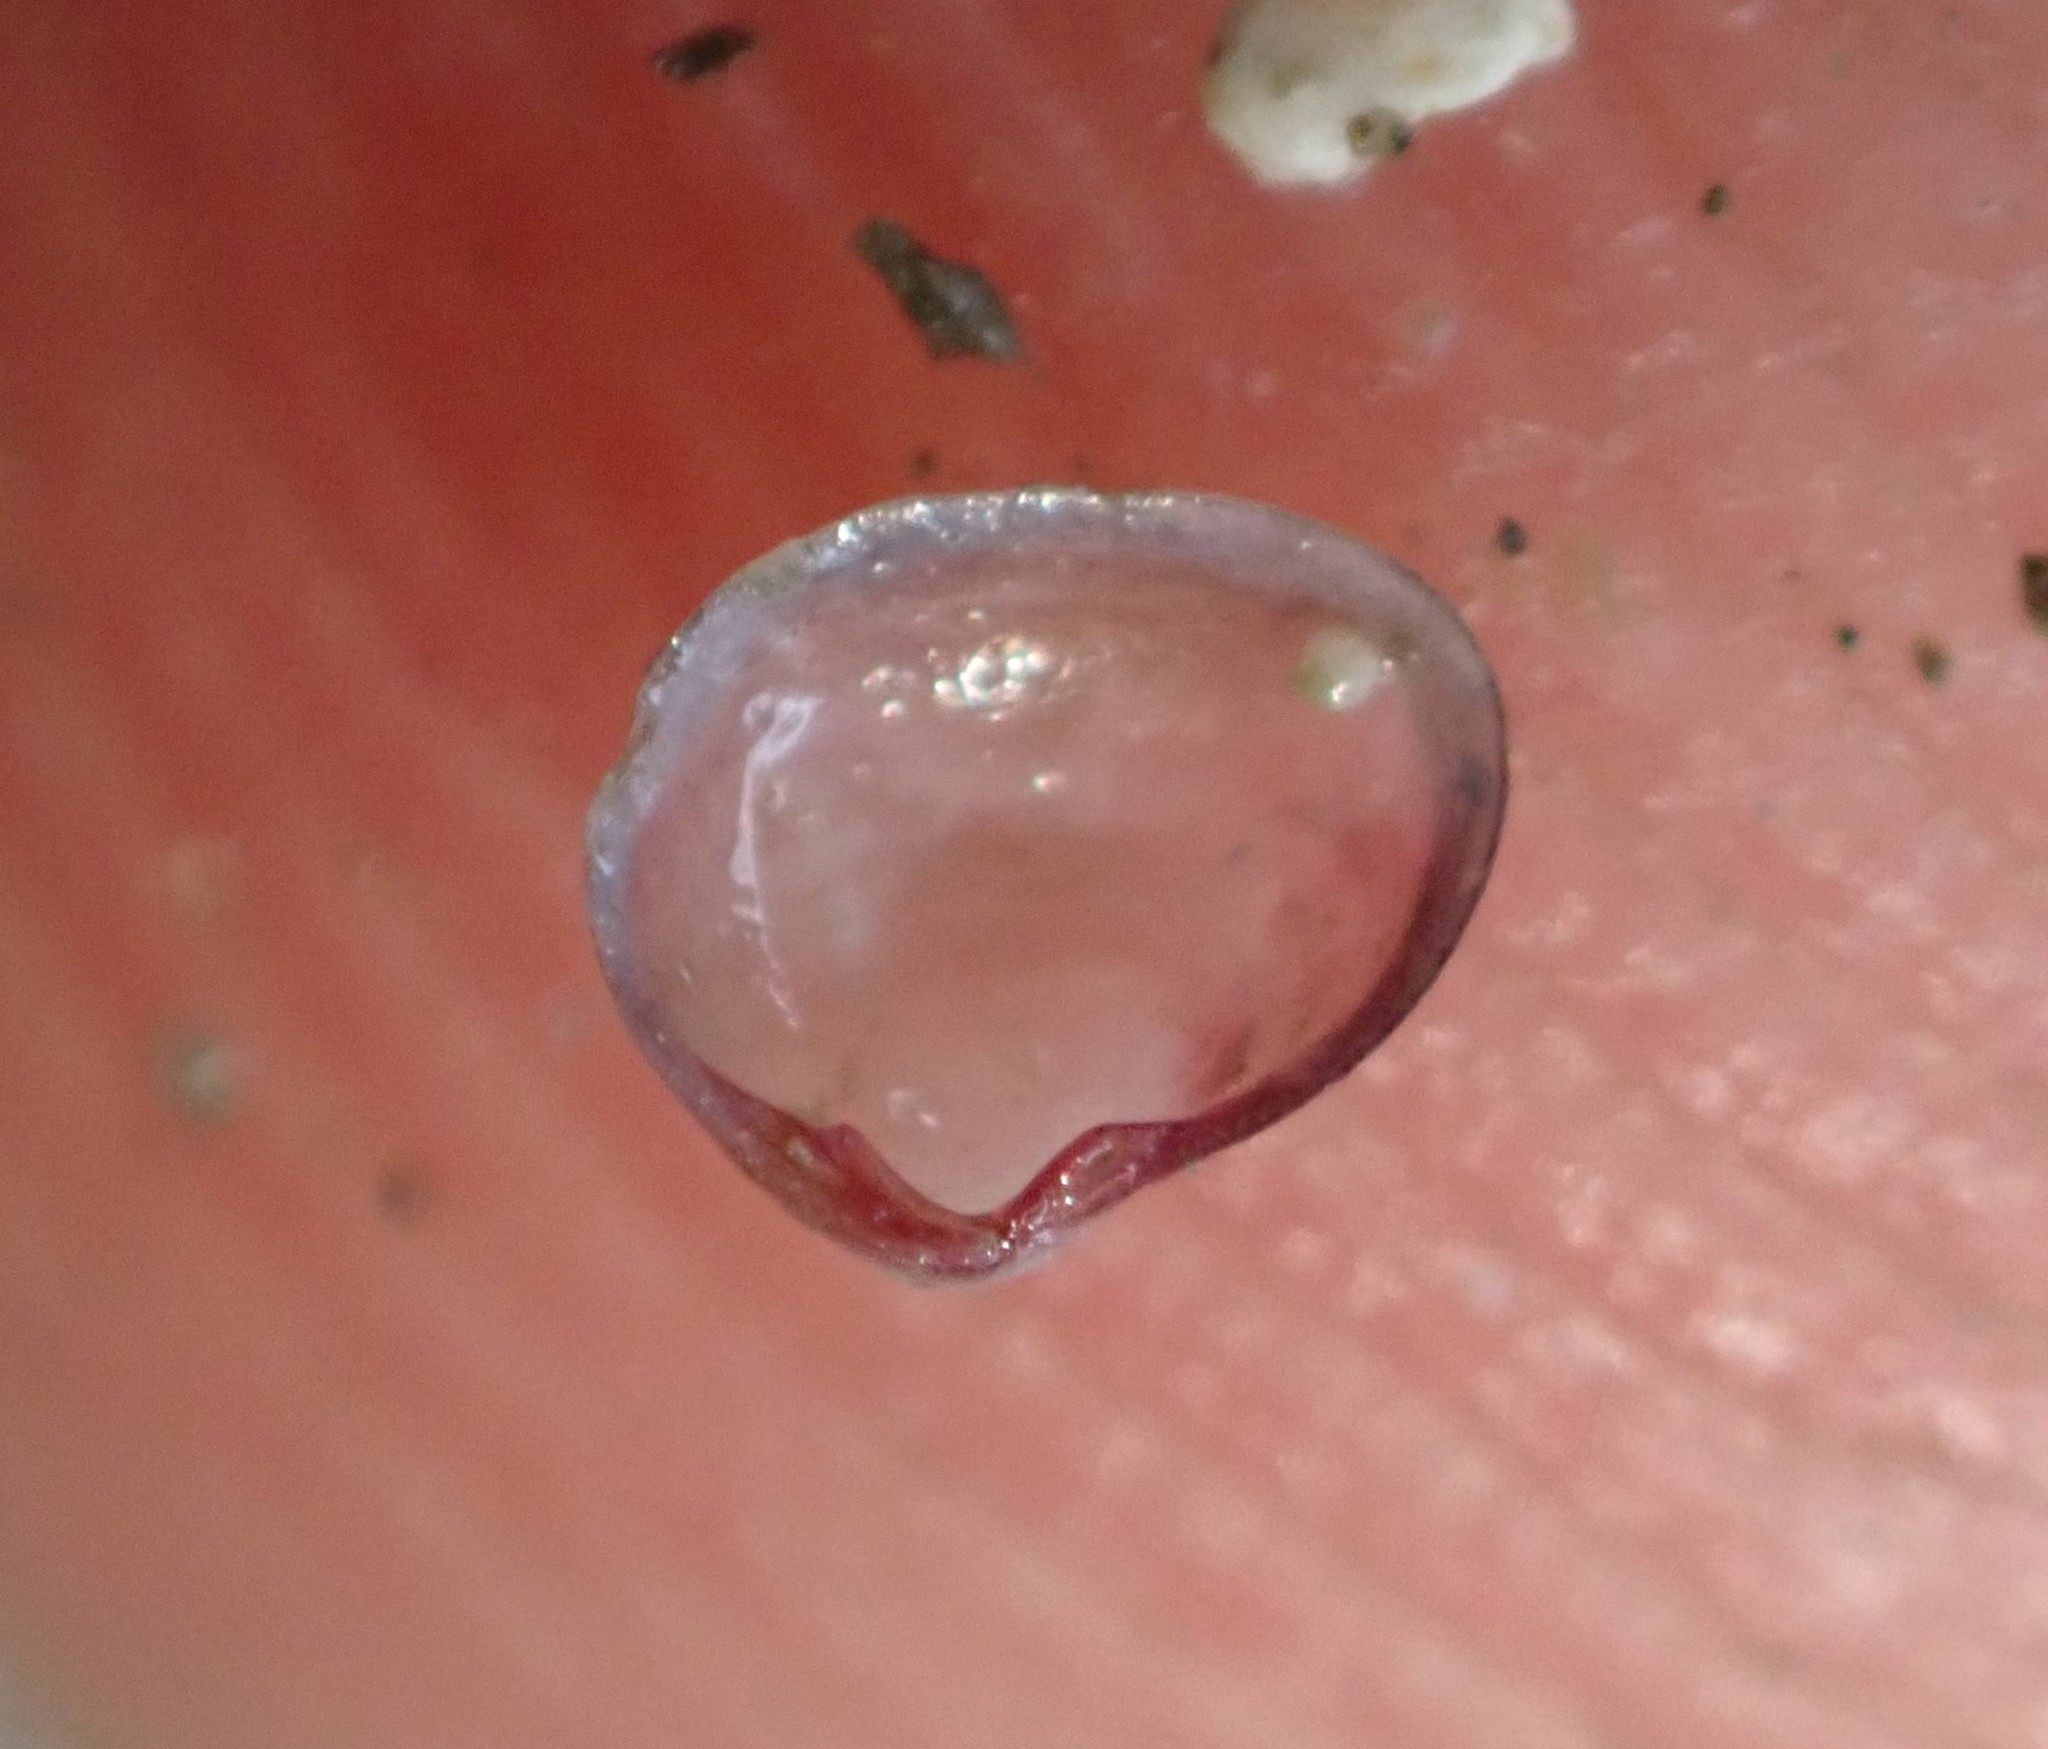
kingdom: Animalia
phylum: Mollusca
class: Bivalvia
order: Galeommatida
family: Lasaeidae
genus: Lasaea
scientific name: Lasaea hinemoa
